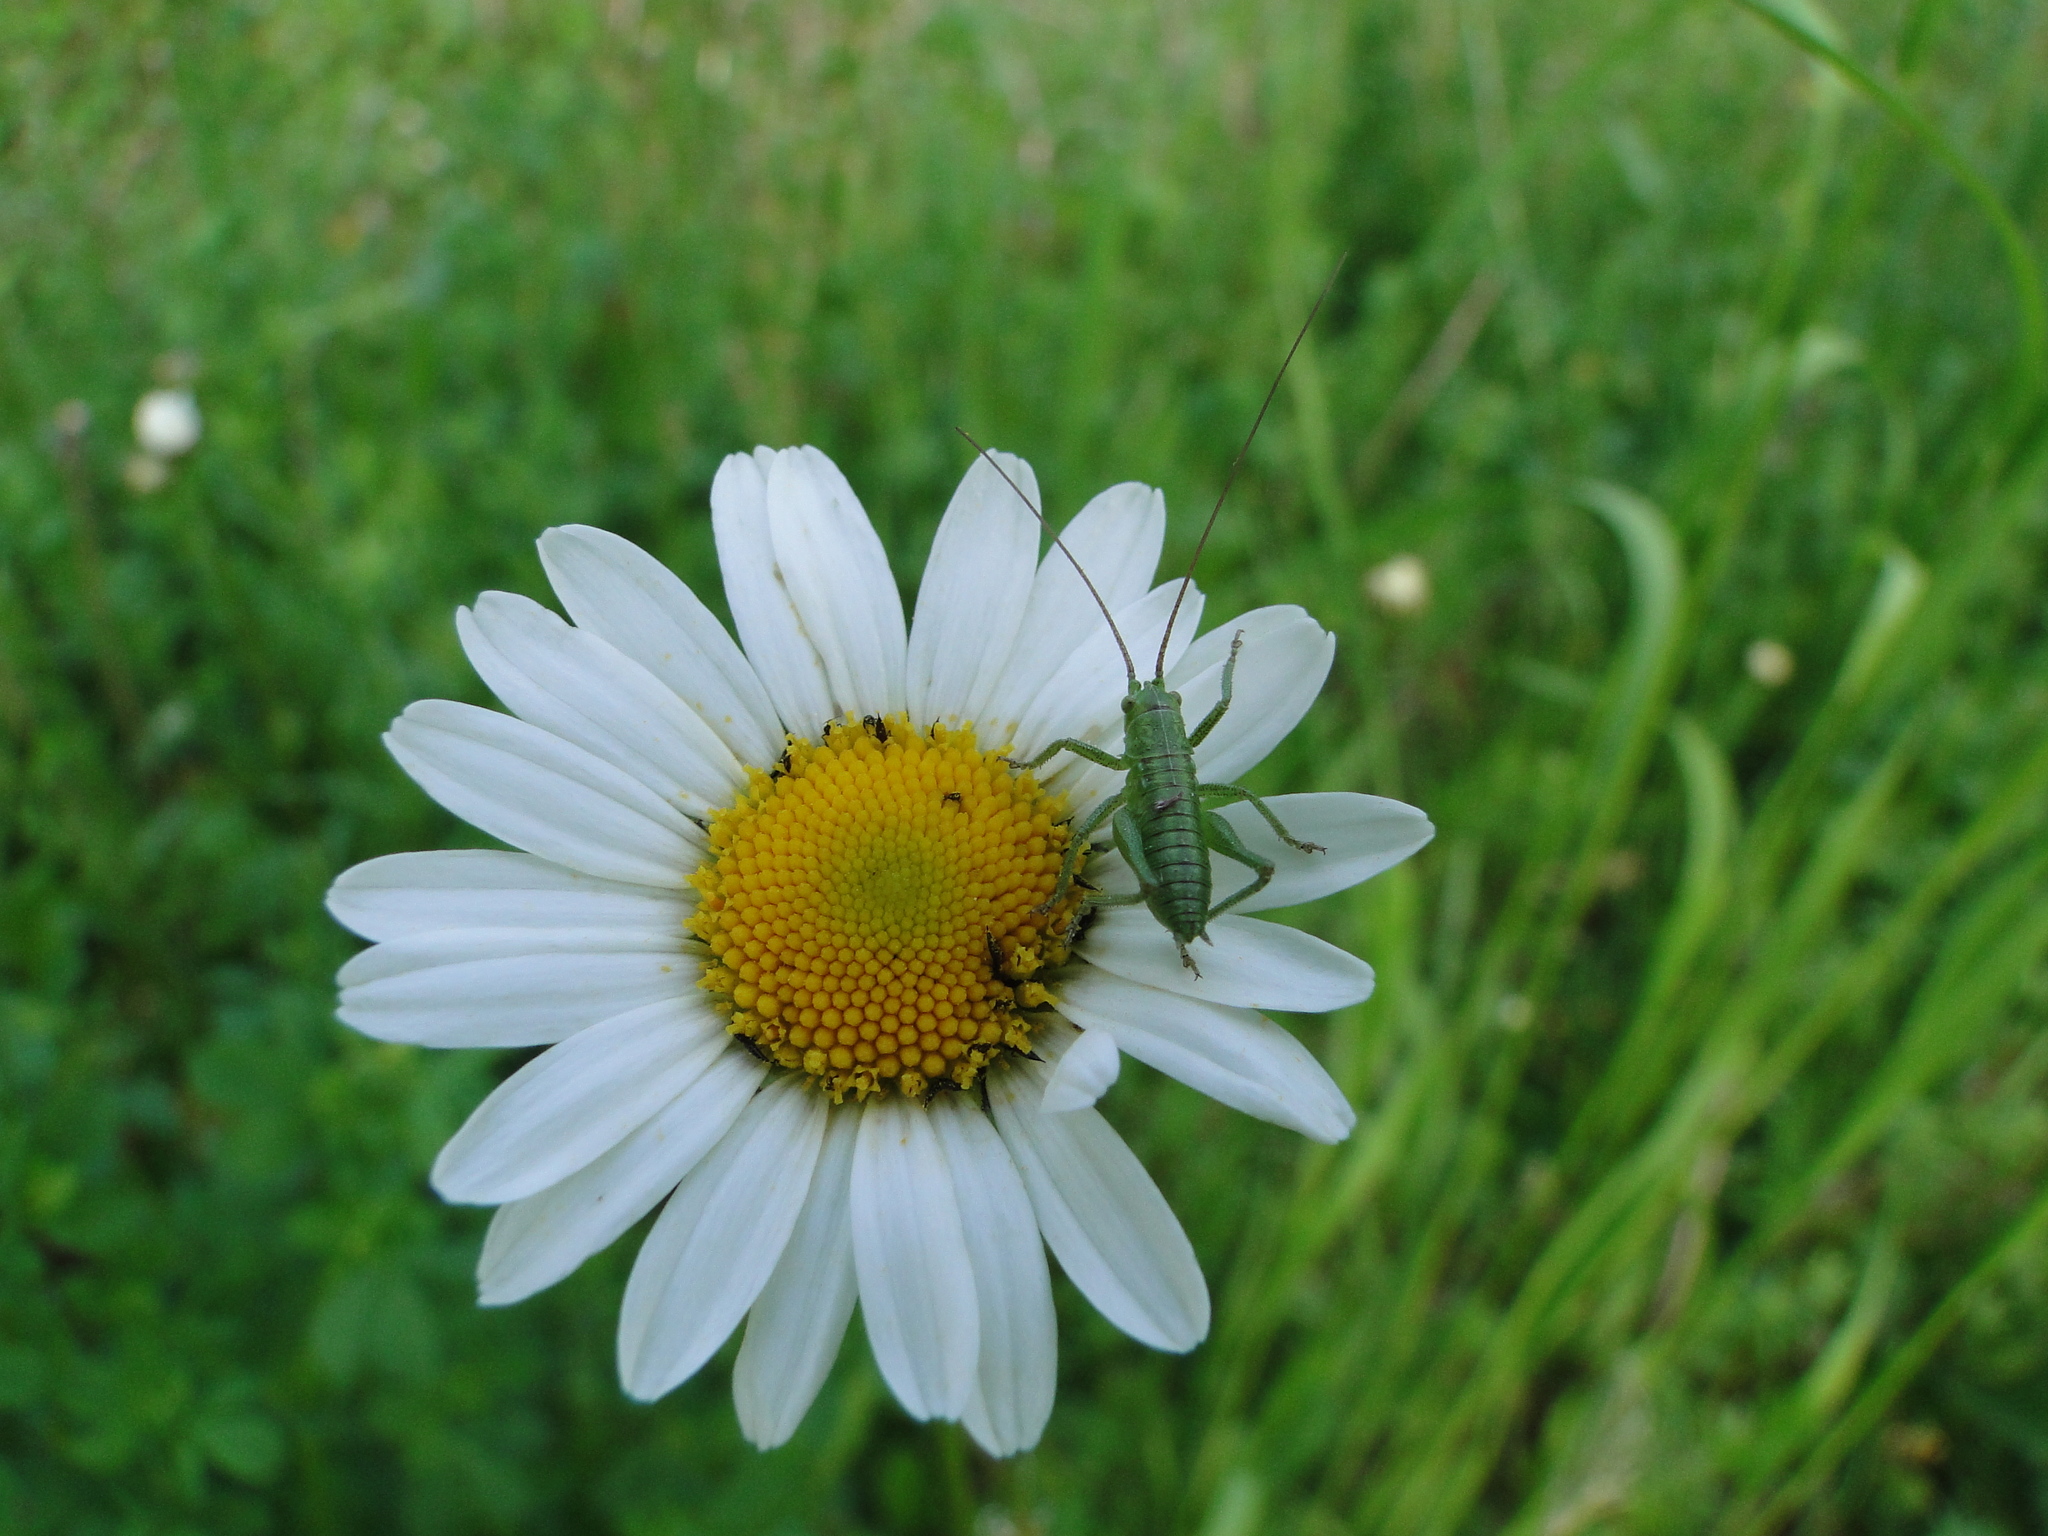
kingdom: Animalia
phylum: Arthropoda
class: Insecta
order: Orthoptera
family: Tettigoniidae
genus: Tettigonia
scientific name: Tettigonia viridissima
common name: Great green bush-cricket
